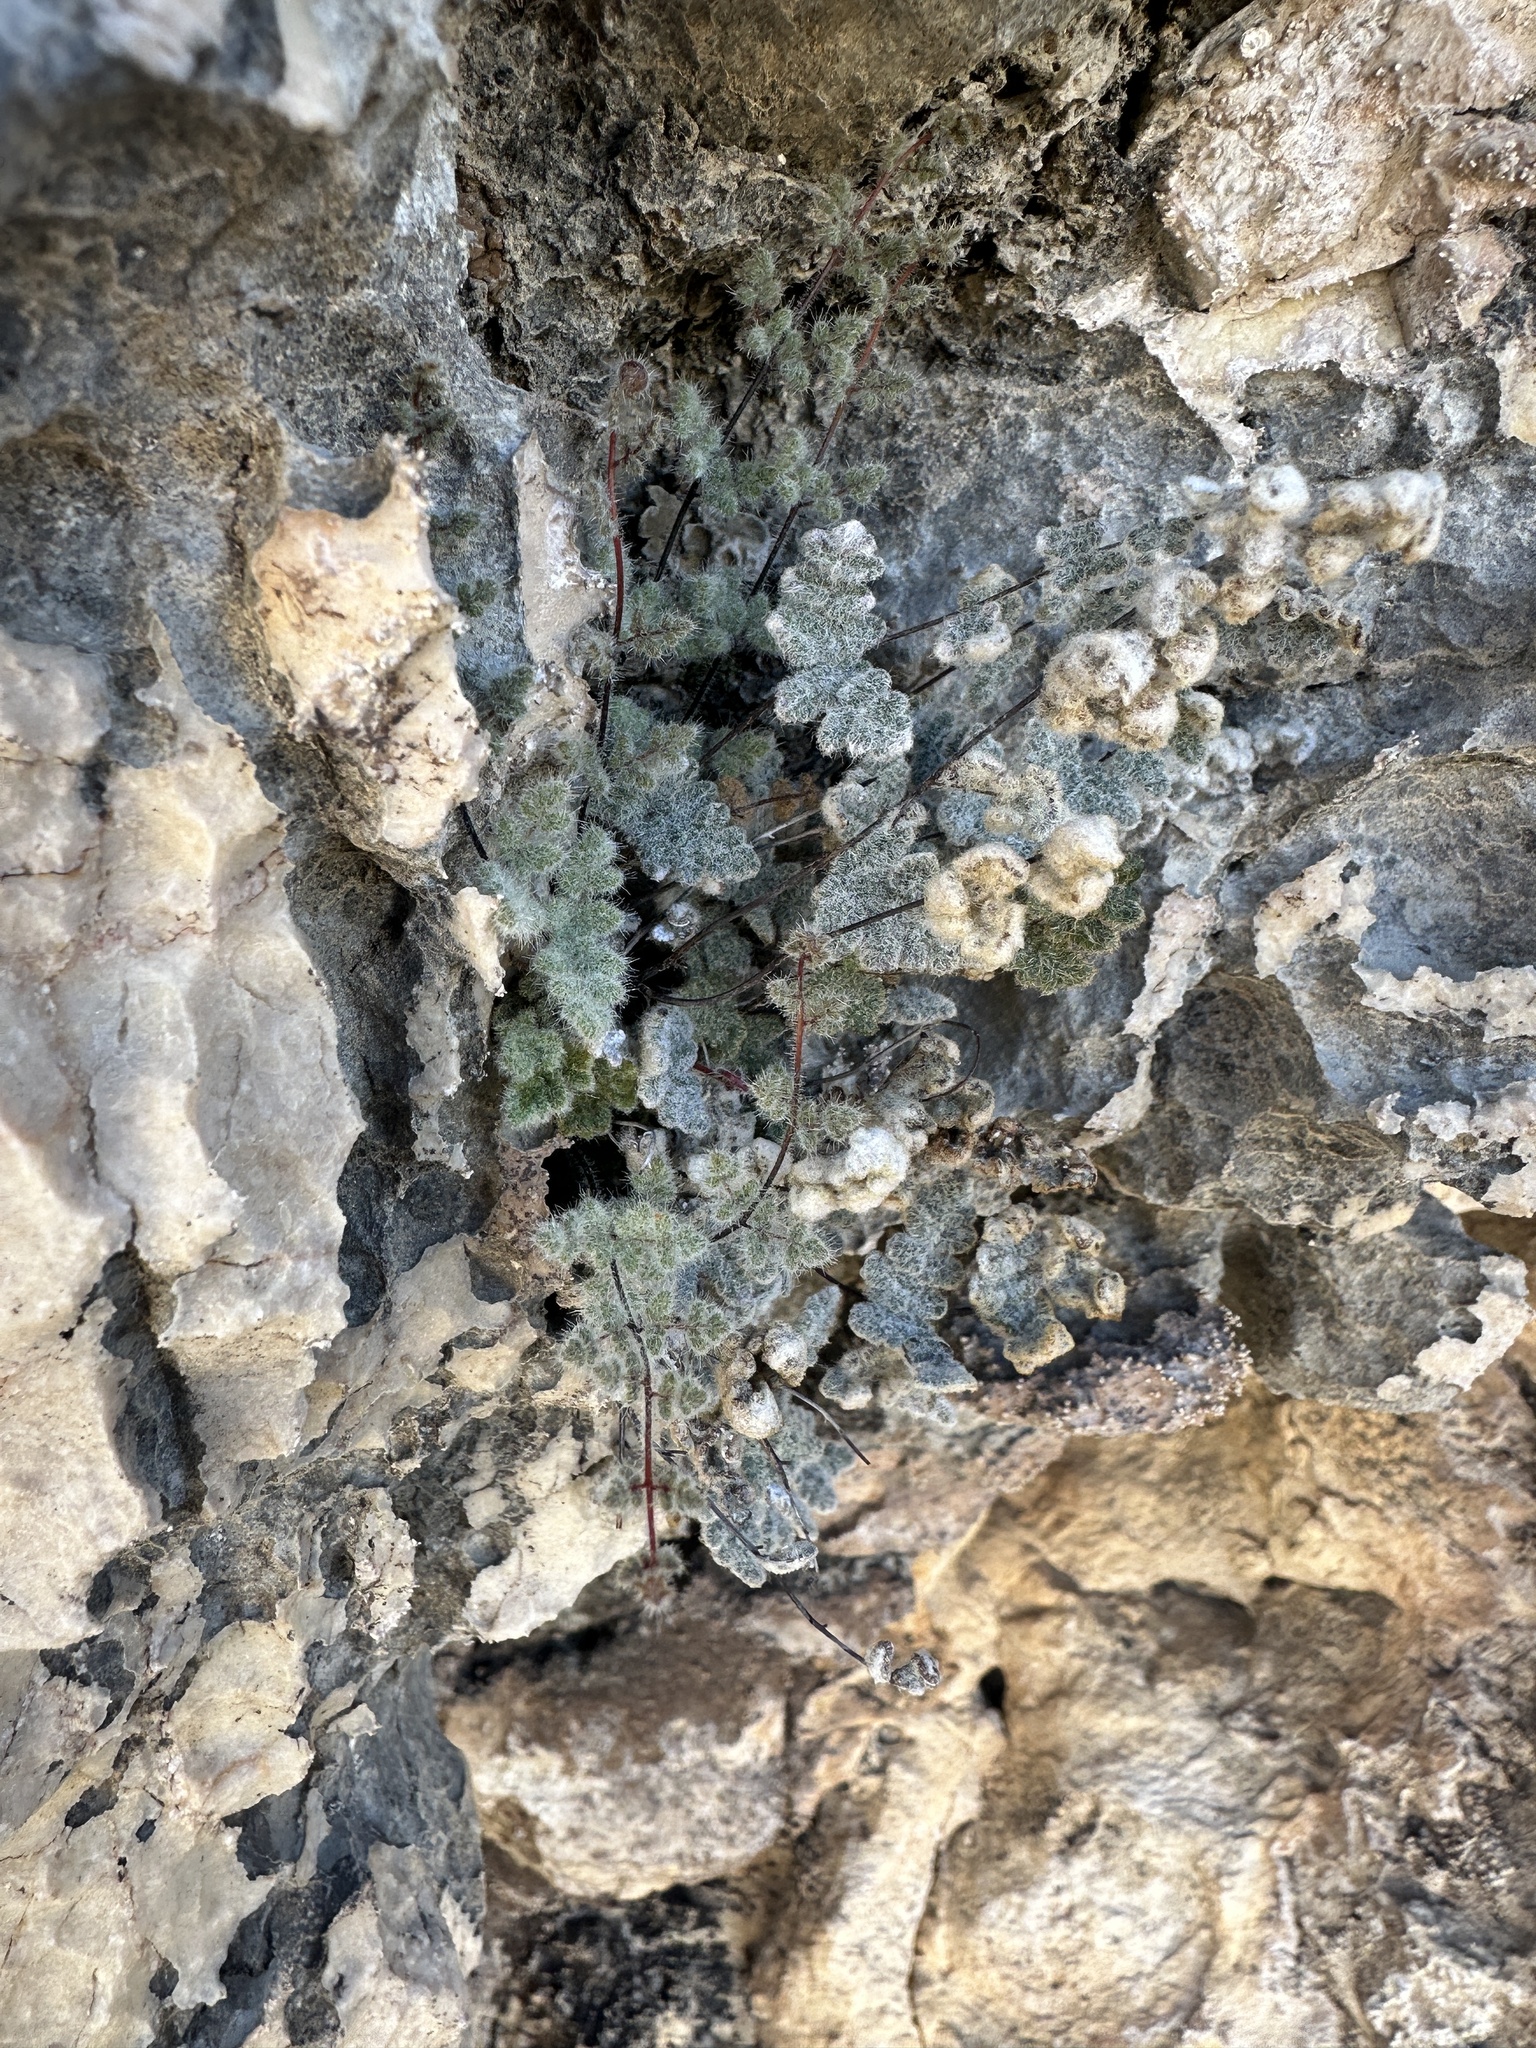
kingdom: Plantae
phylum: Tracheophyta
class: Polypodiopsida
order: Polypodiales
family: Pteridaceae
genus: Myriopteris
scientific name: Myriopteris parryi
